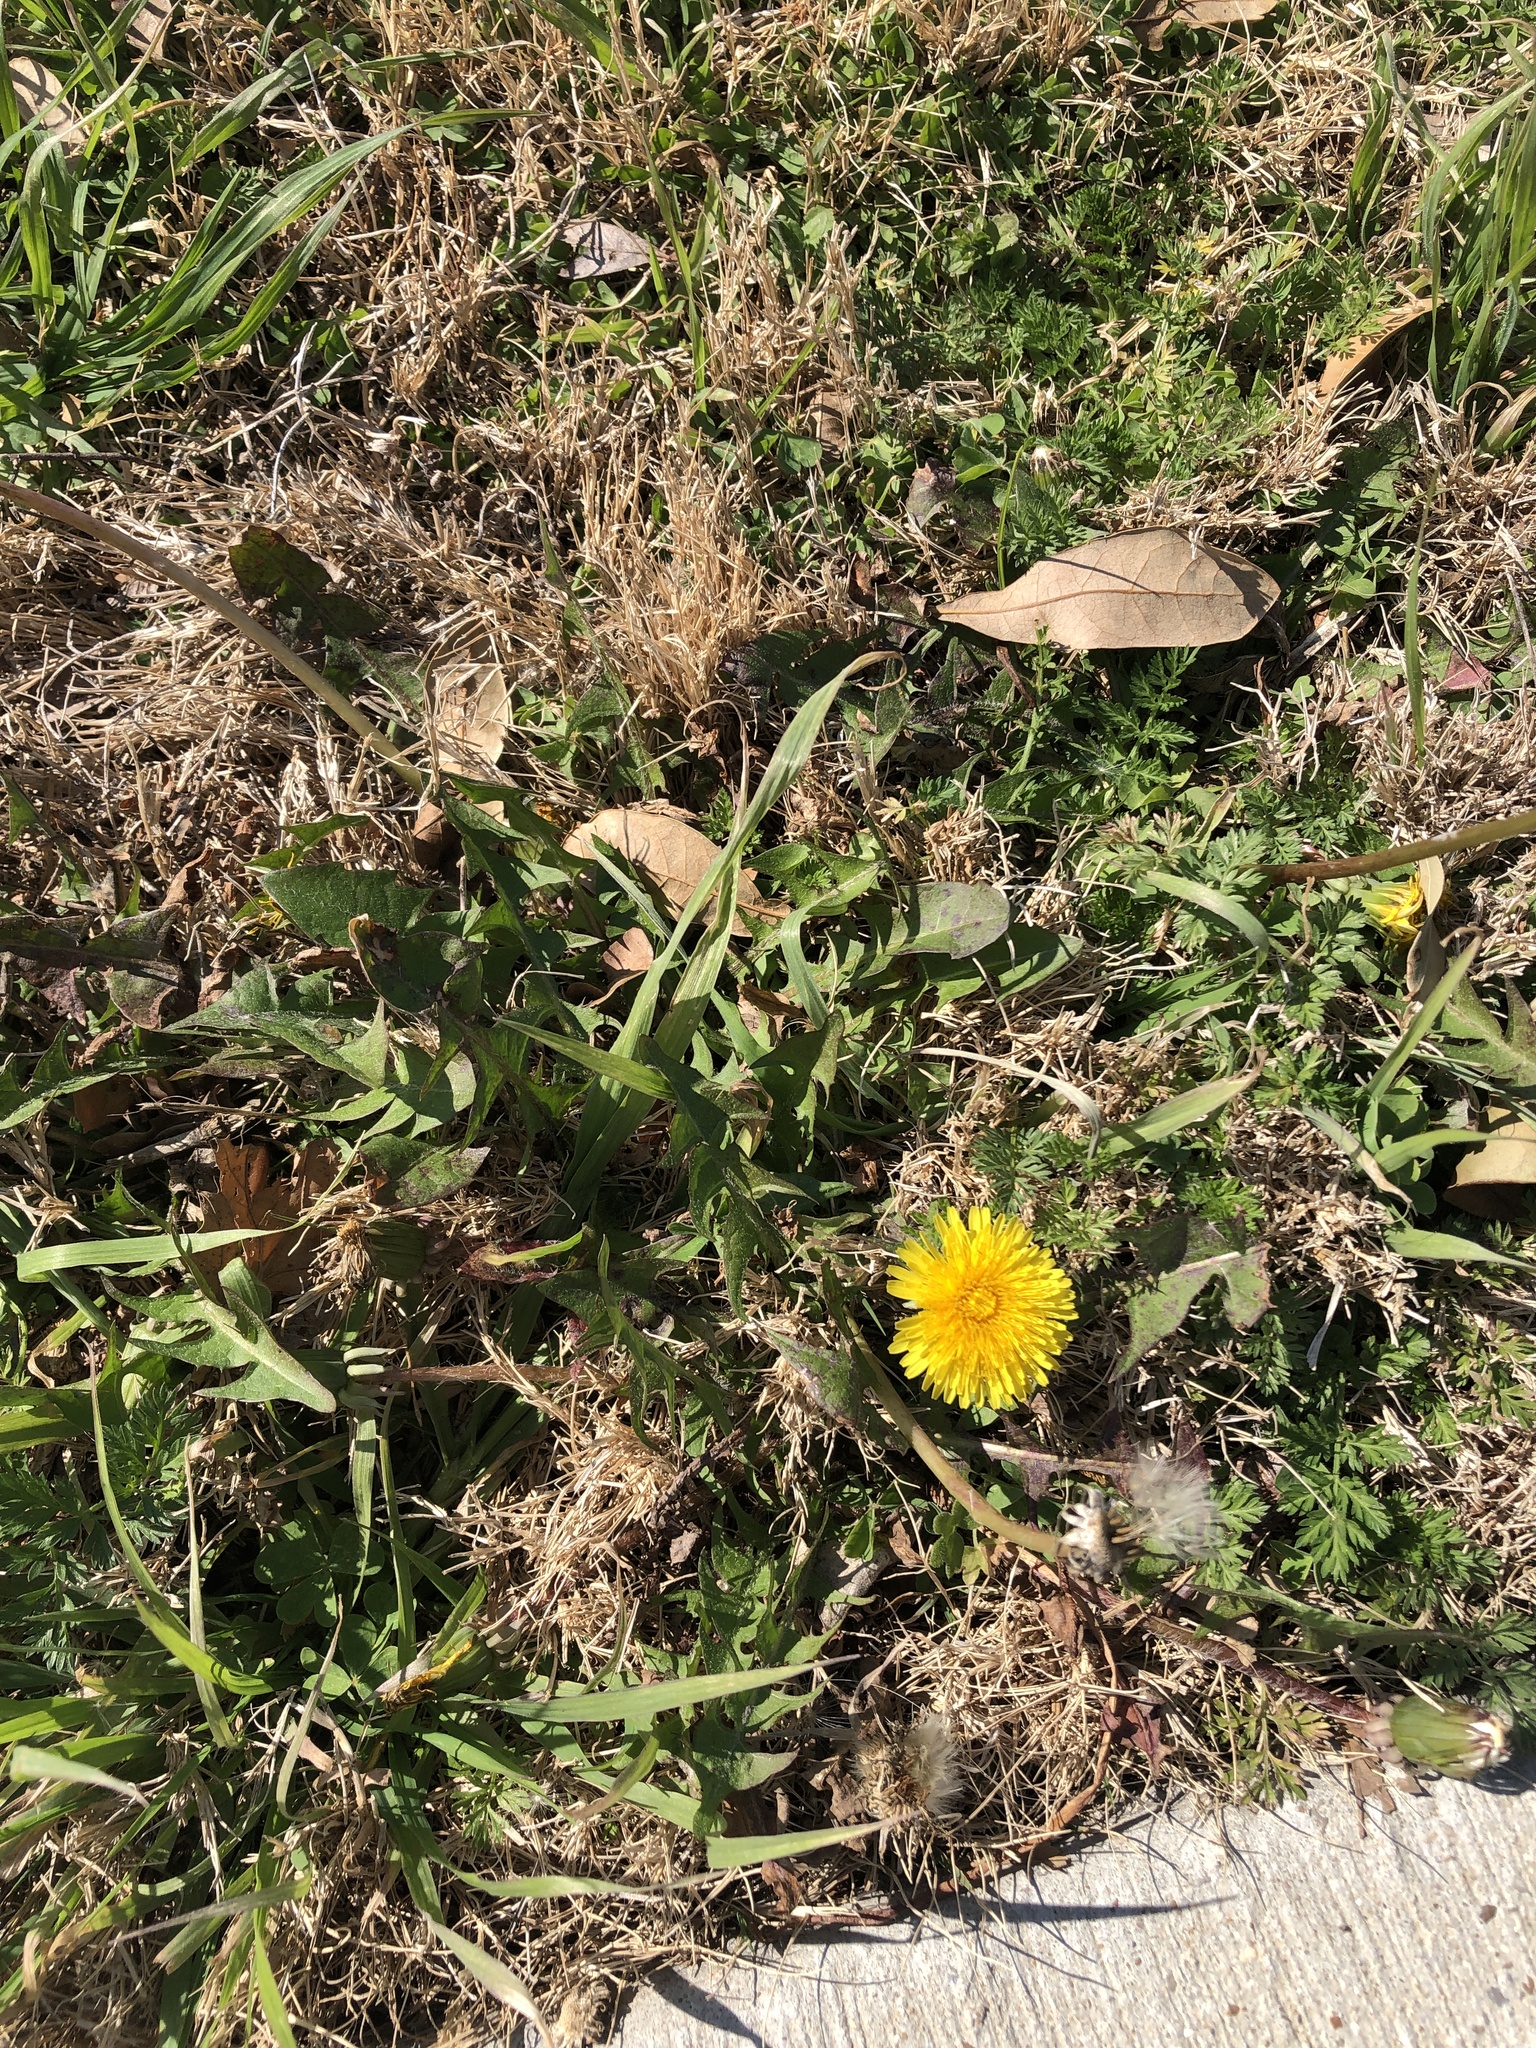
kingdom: Plantae
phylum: Tracheophyta
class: Magnoliopsida
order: Asterales
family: Asteraceae
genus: Taraxacum
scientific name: Taraxacum officinale
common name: Common dandelion
